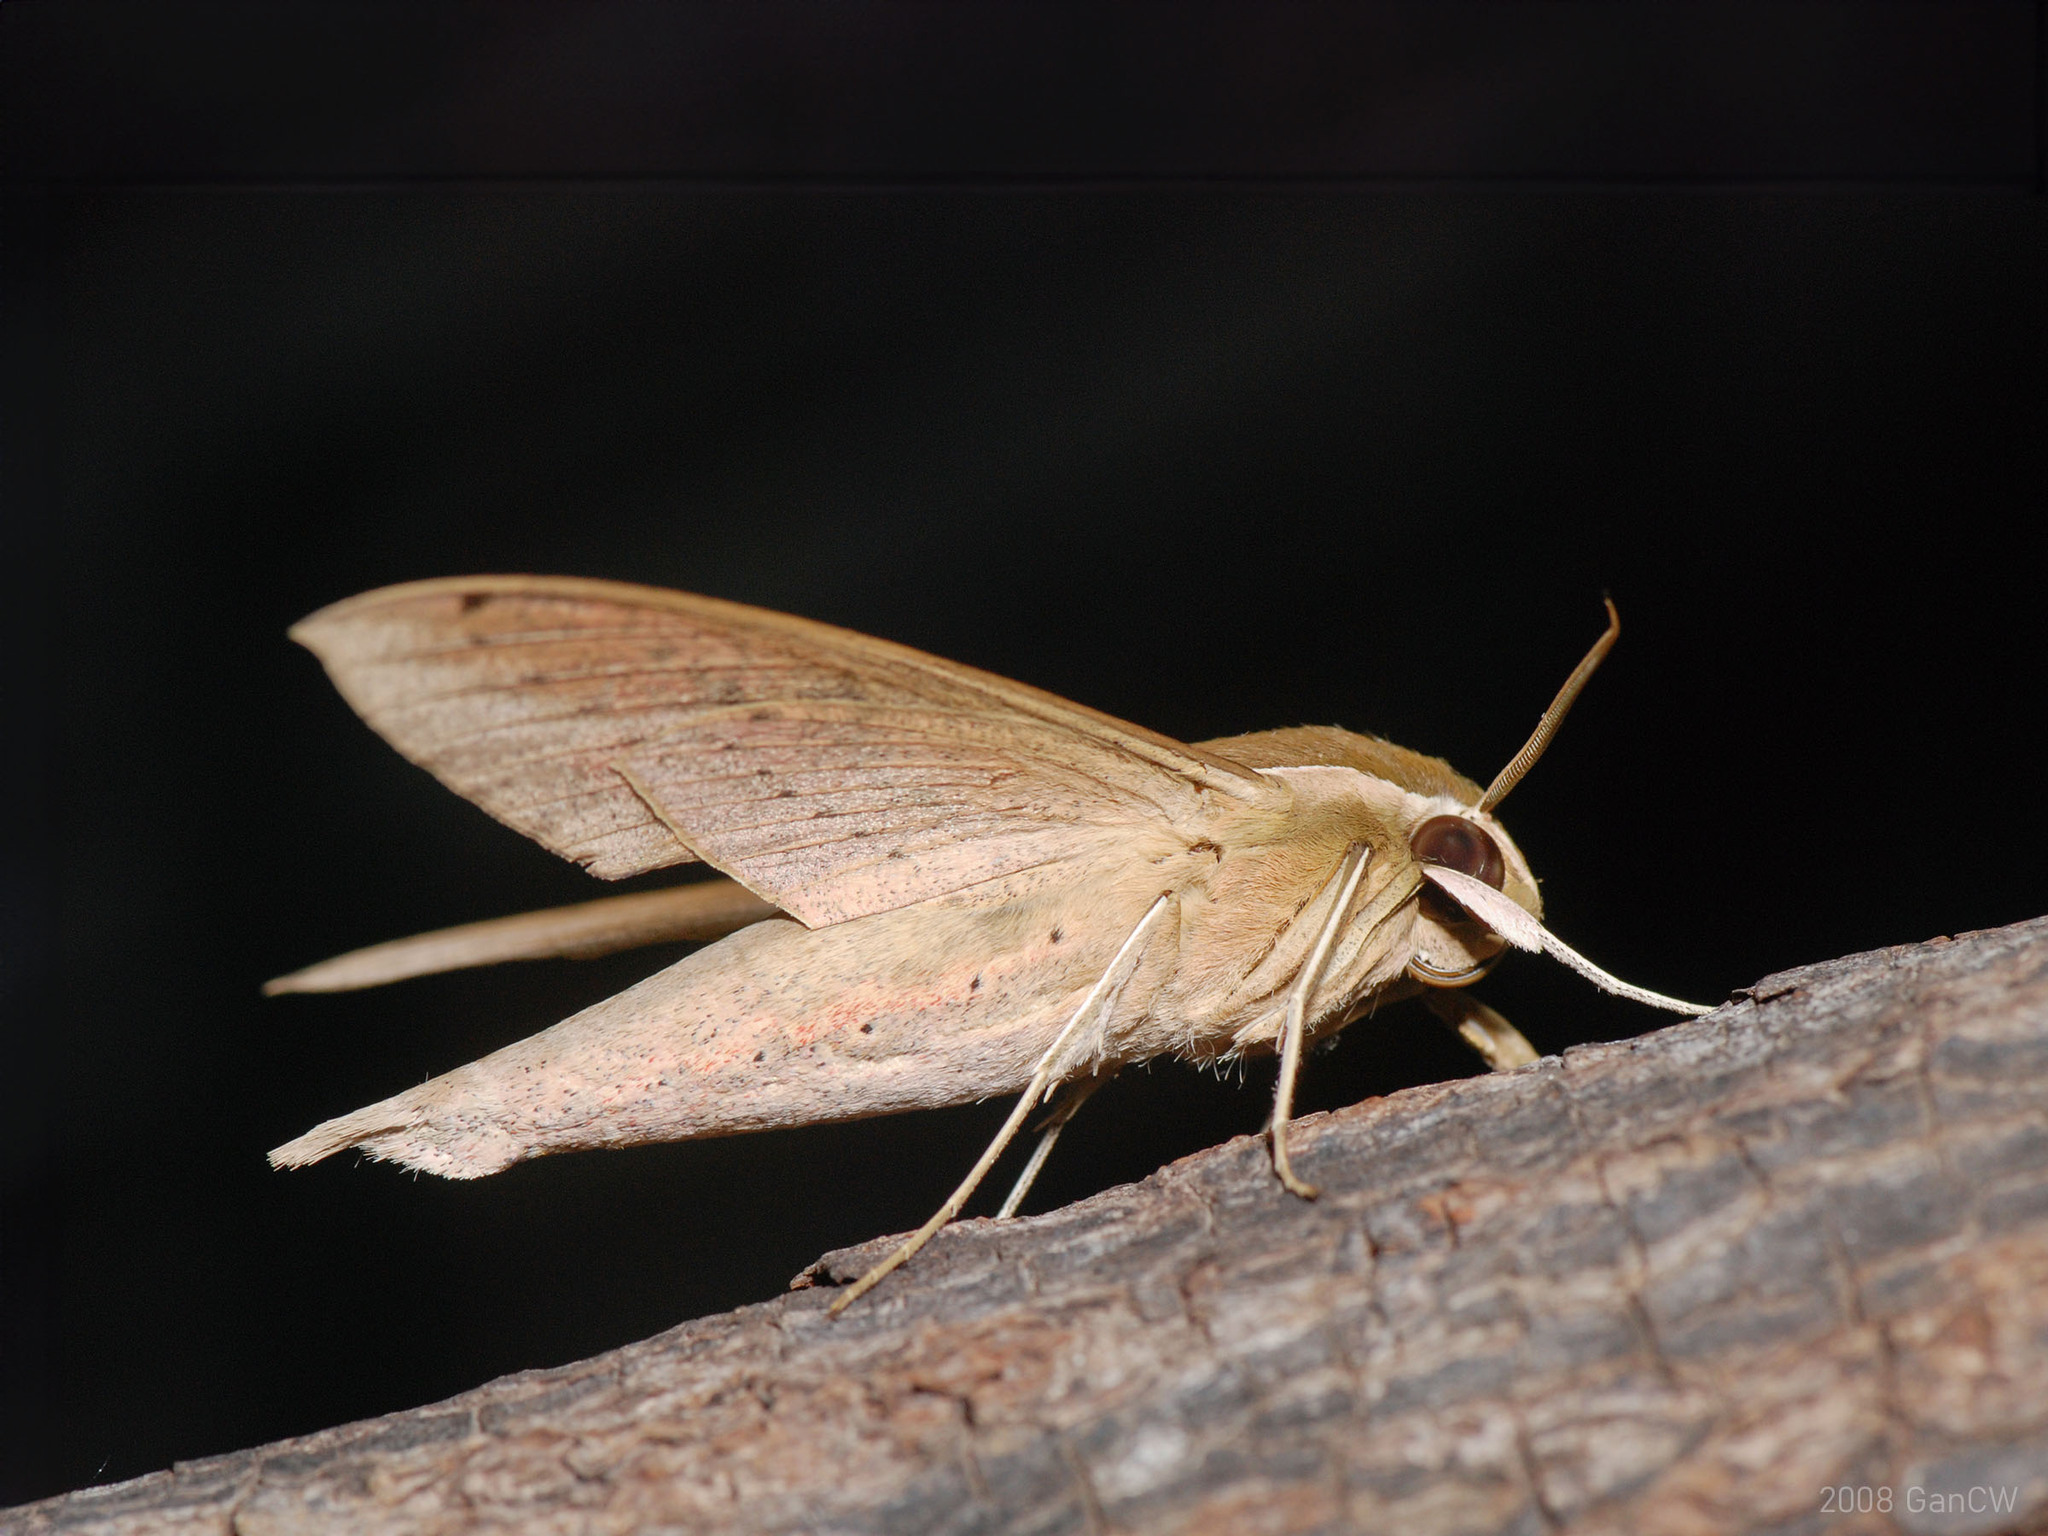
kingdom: Animalia
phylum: Arthropoda
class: Insecta
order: Lepidoptera
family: Sphingidae
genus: Theretra
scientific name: Theretra sumatrensis
